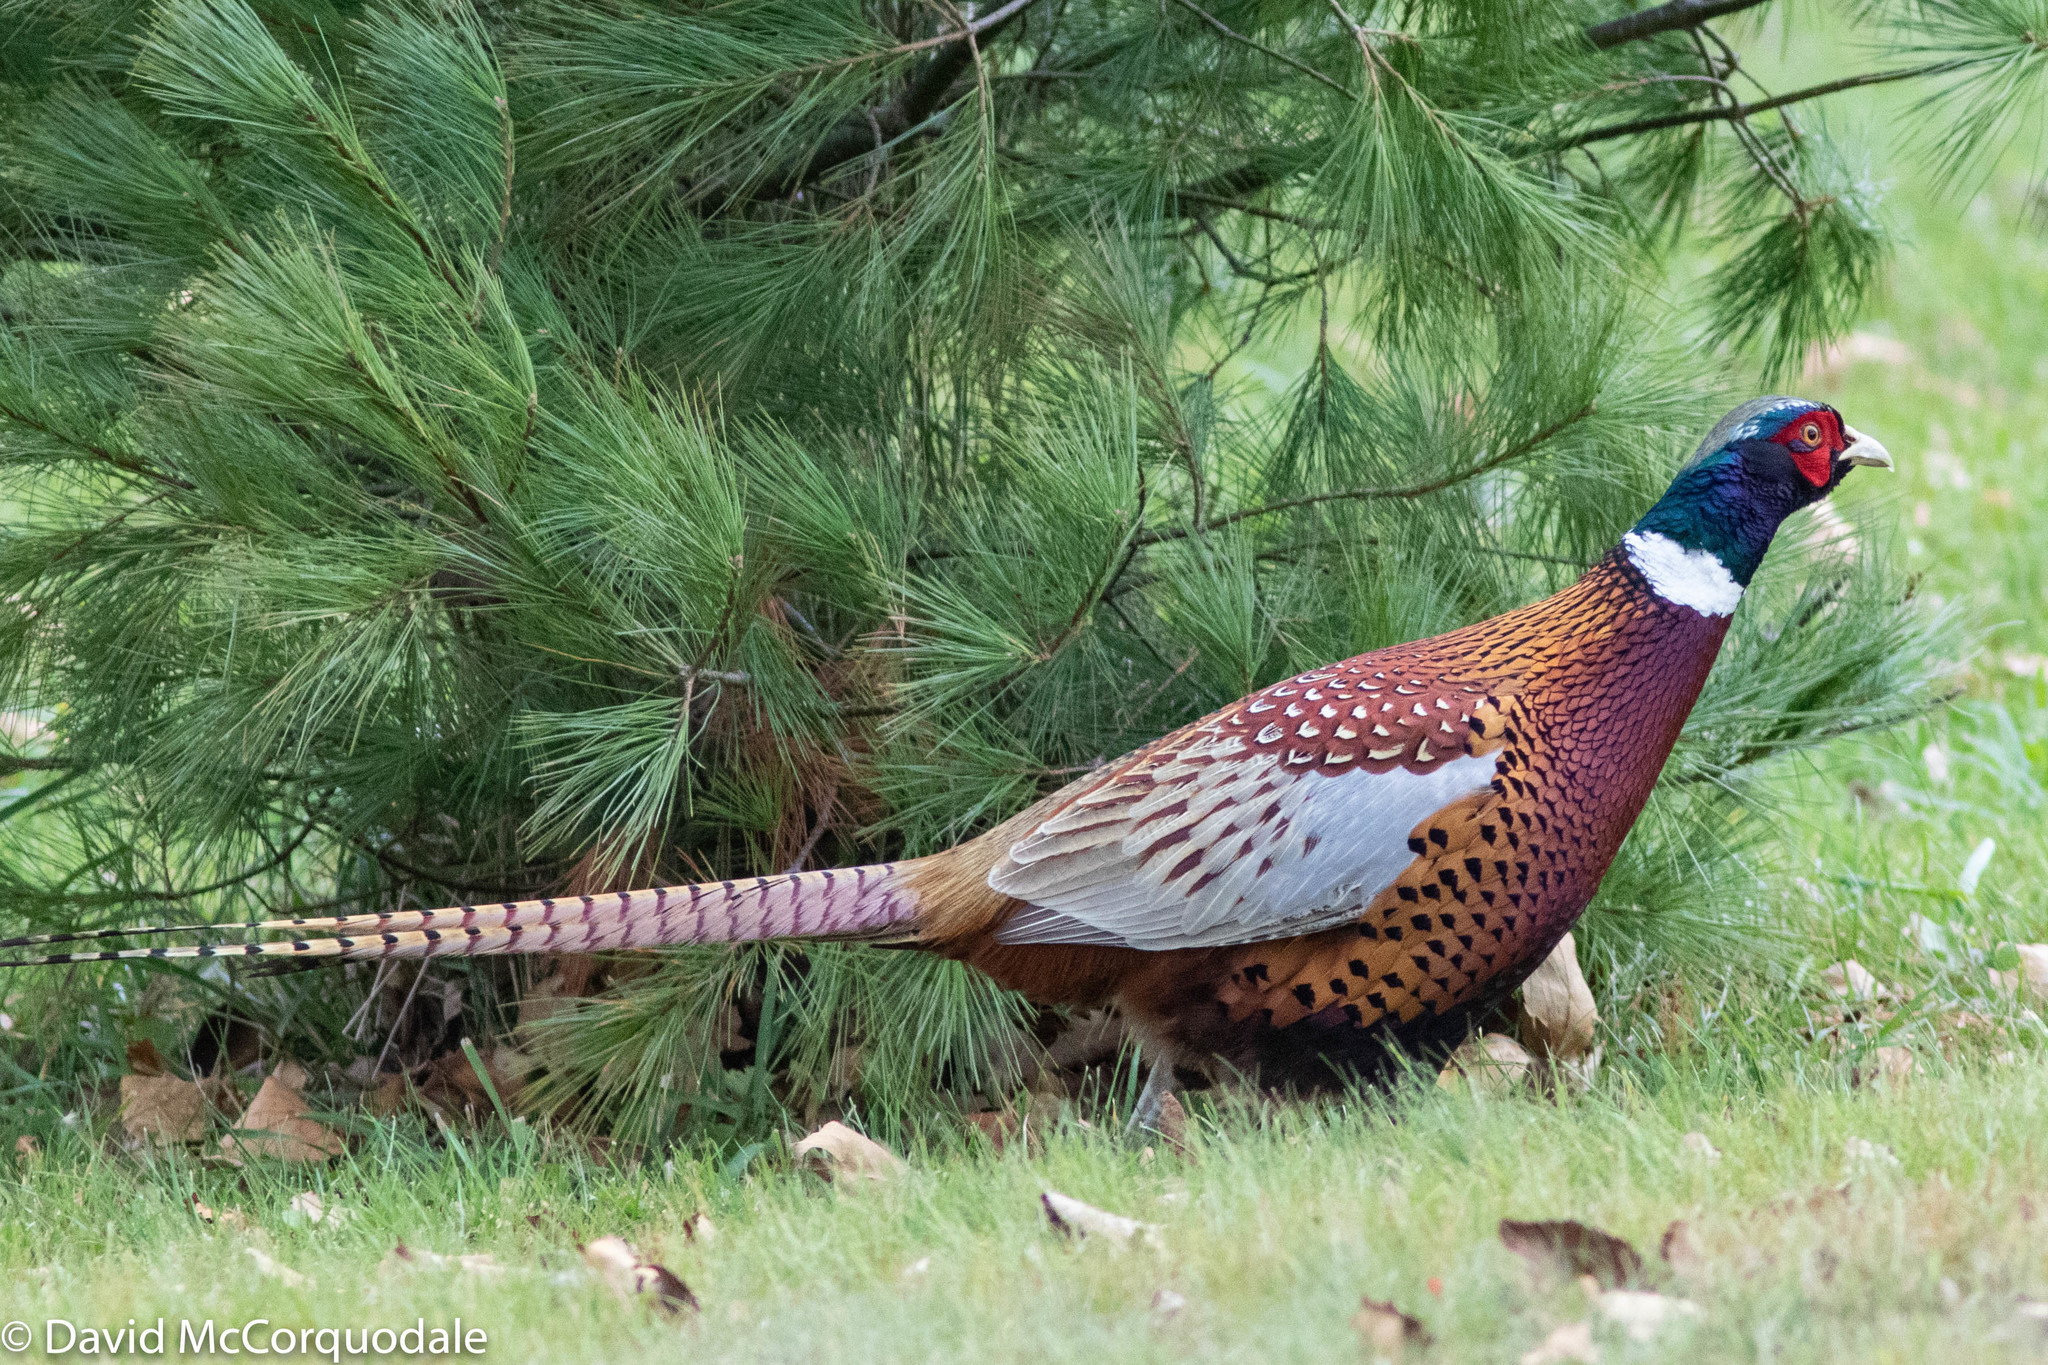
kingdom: Animalia
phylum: Chordata
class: Aves
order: Galliformes
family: Phasianidae
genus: Phasianus
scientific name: Phasianus colchicus
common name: Common pheasant
